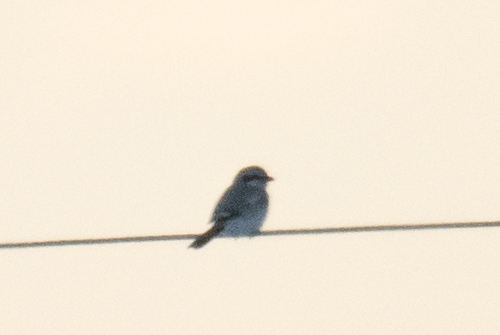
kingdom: Animalia
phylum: Chordata
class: Aves
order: Passeriformes
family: Laniidae
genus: Lanius
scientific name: Lanius excubitor
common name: Great grey shrike
